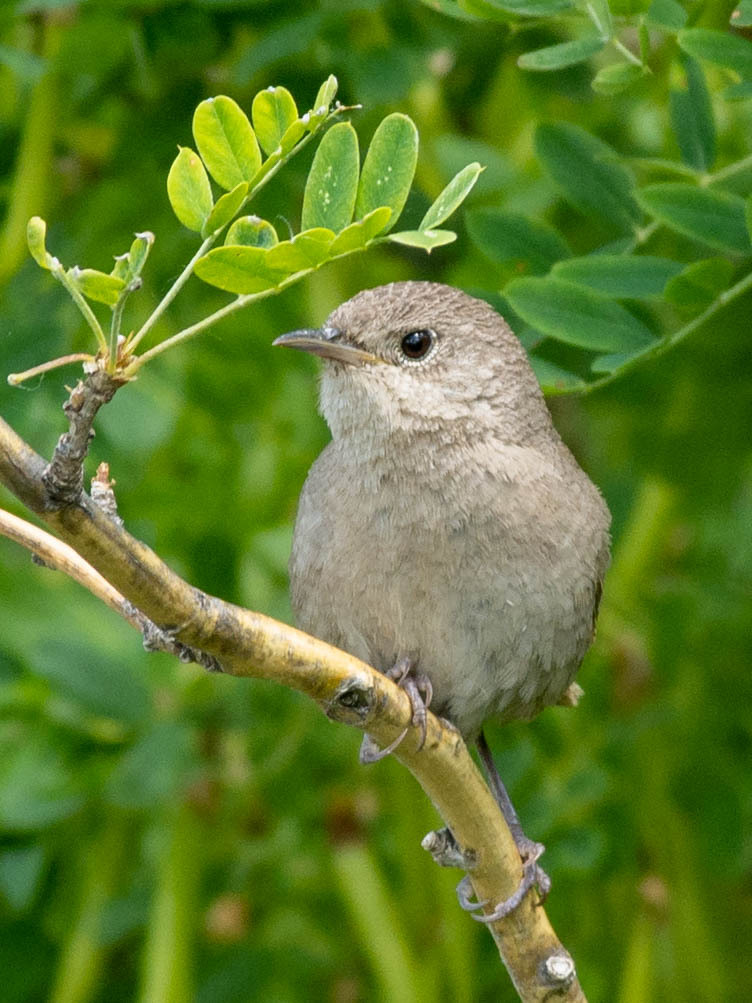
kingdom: Animalia
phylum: Chordata
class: Aves
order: Passeriformes
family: Troglodytidae
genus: Troglodytes
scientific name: Troglodytes aedon
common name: House wren
